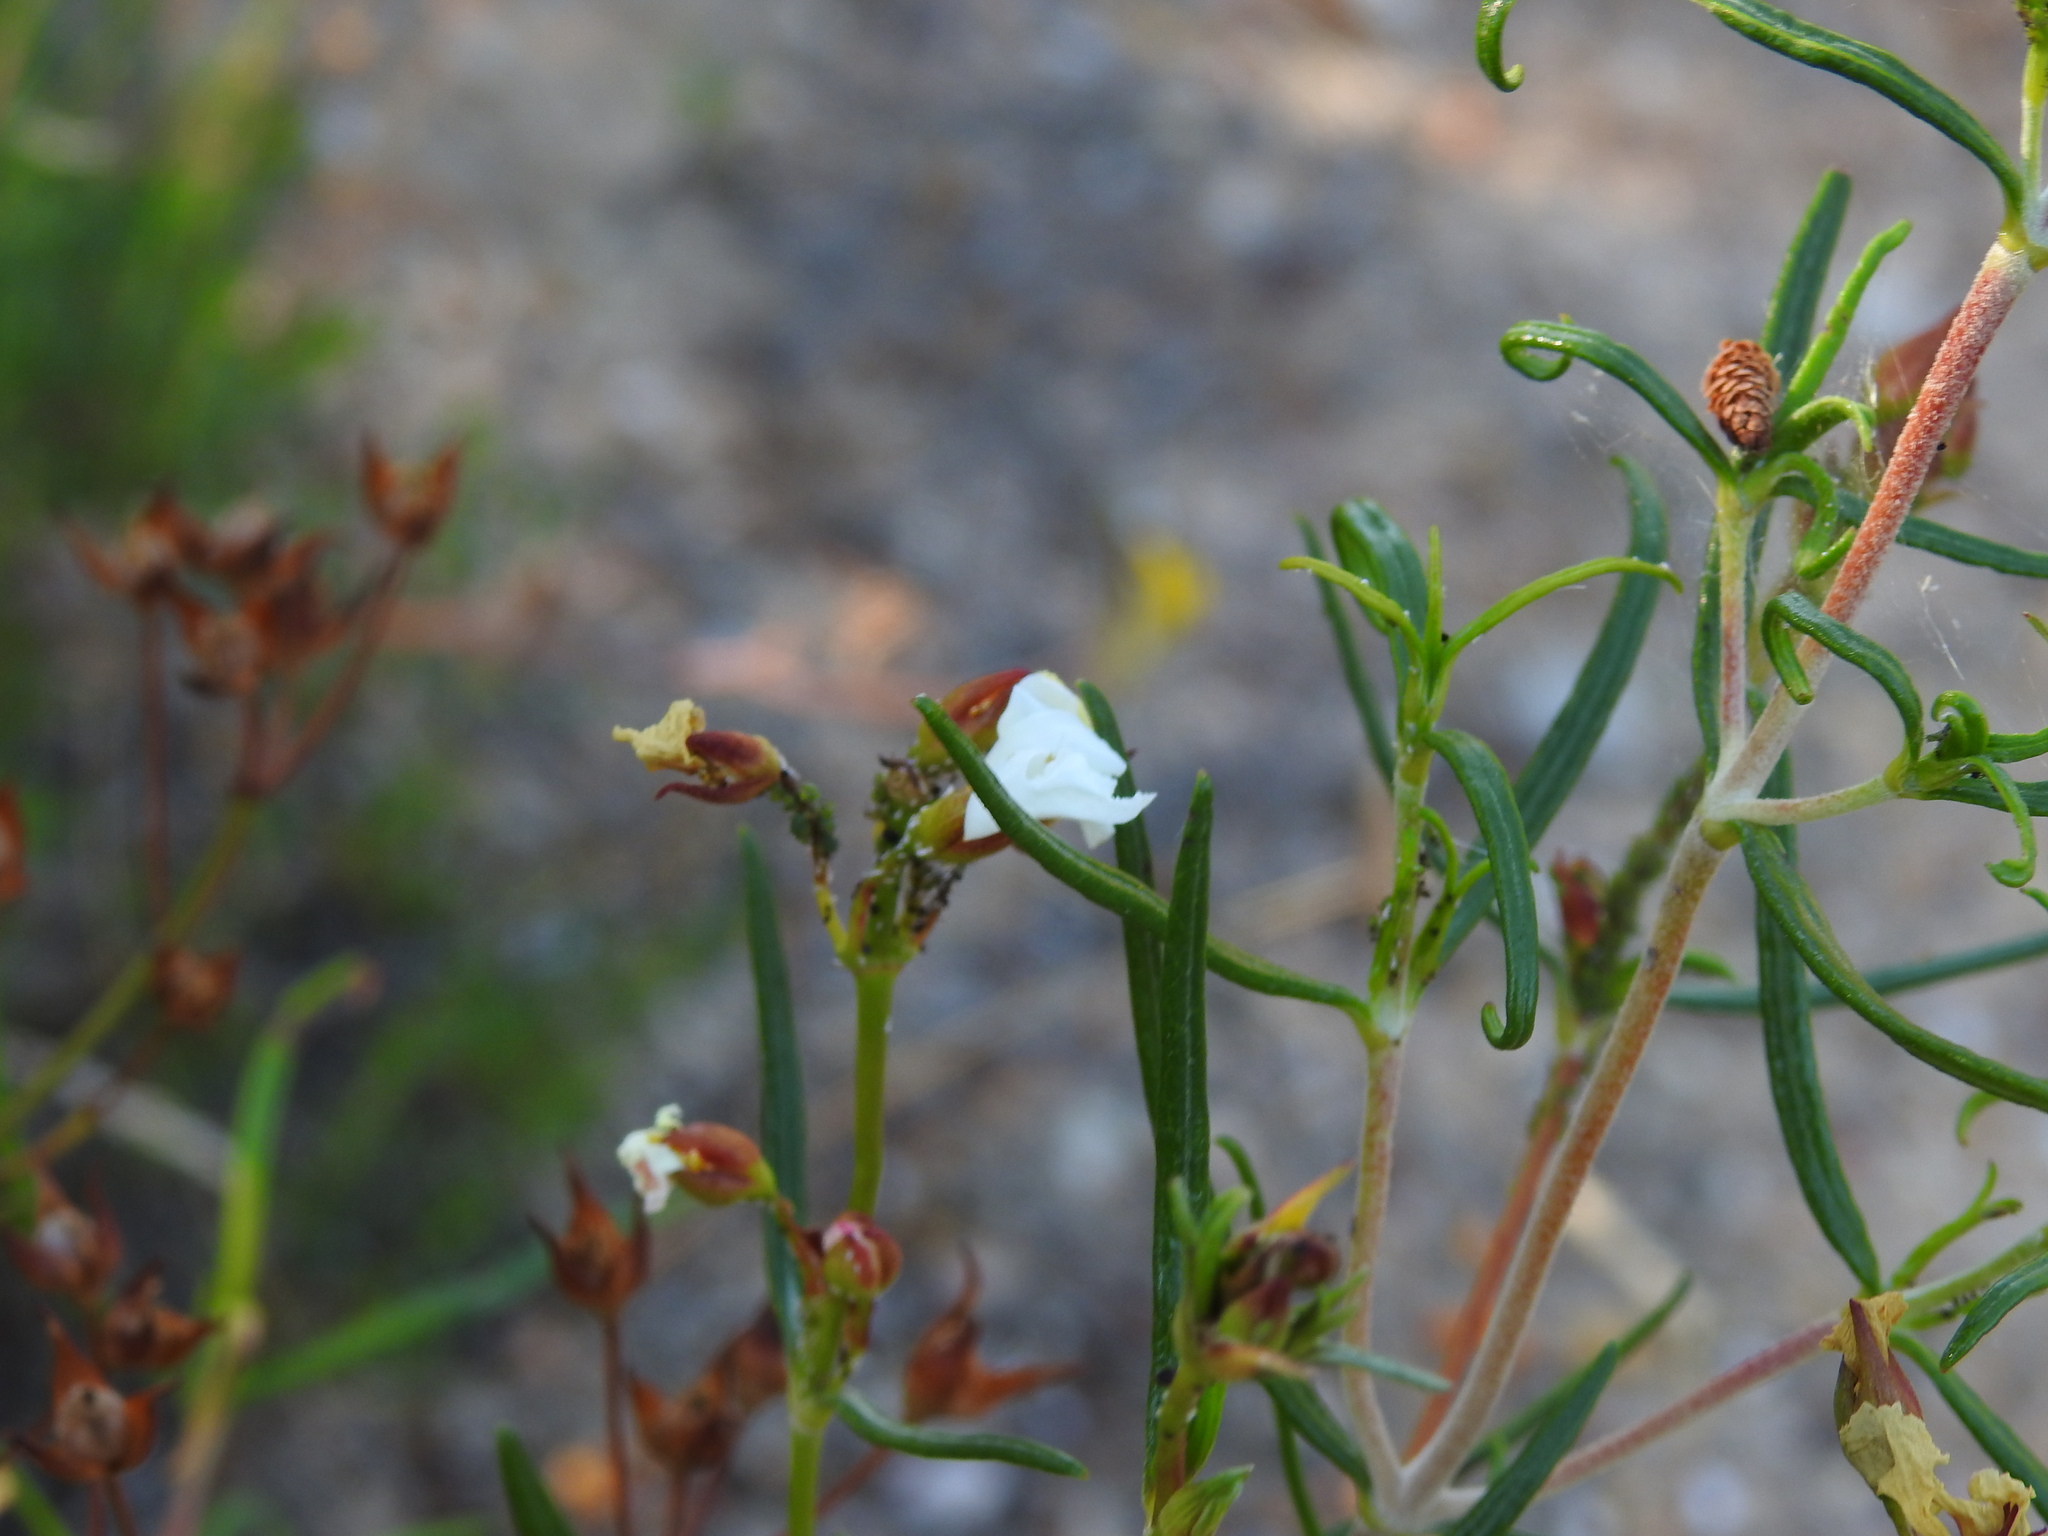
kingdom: Plantae
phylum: Tracheophyta
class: Magnoliopsida
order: Malvales
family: Cistaceae
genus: Cistus
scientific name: Cistus libanotis
